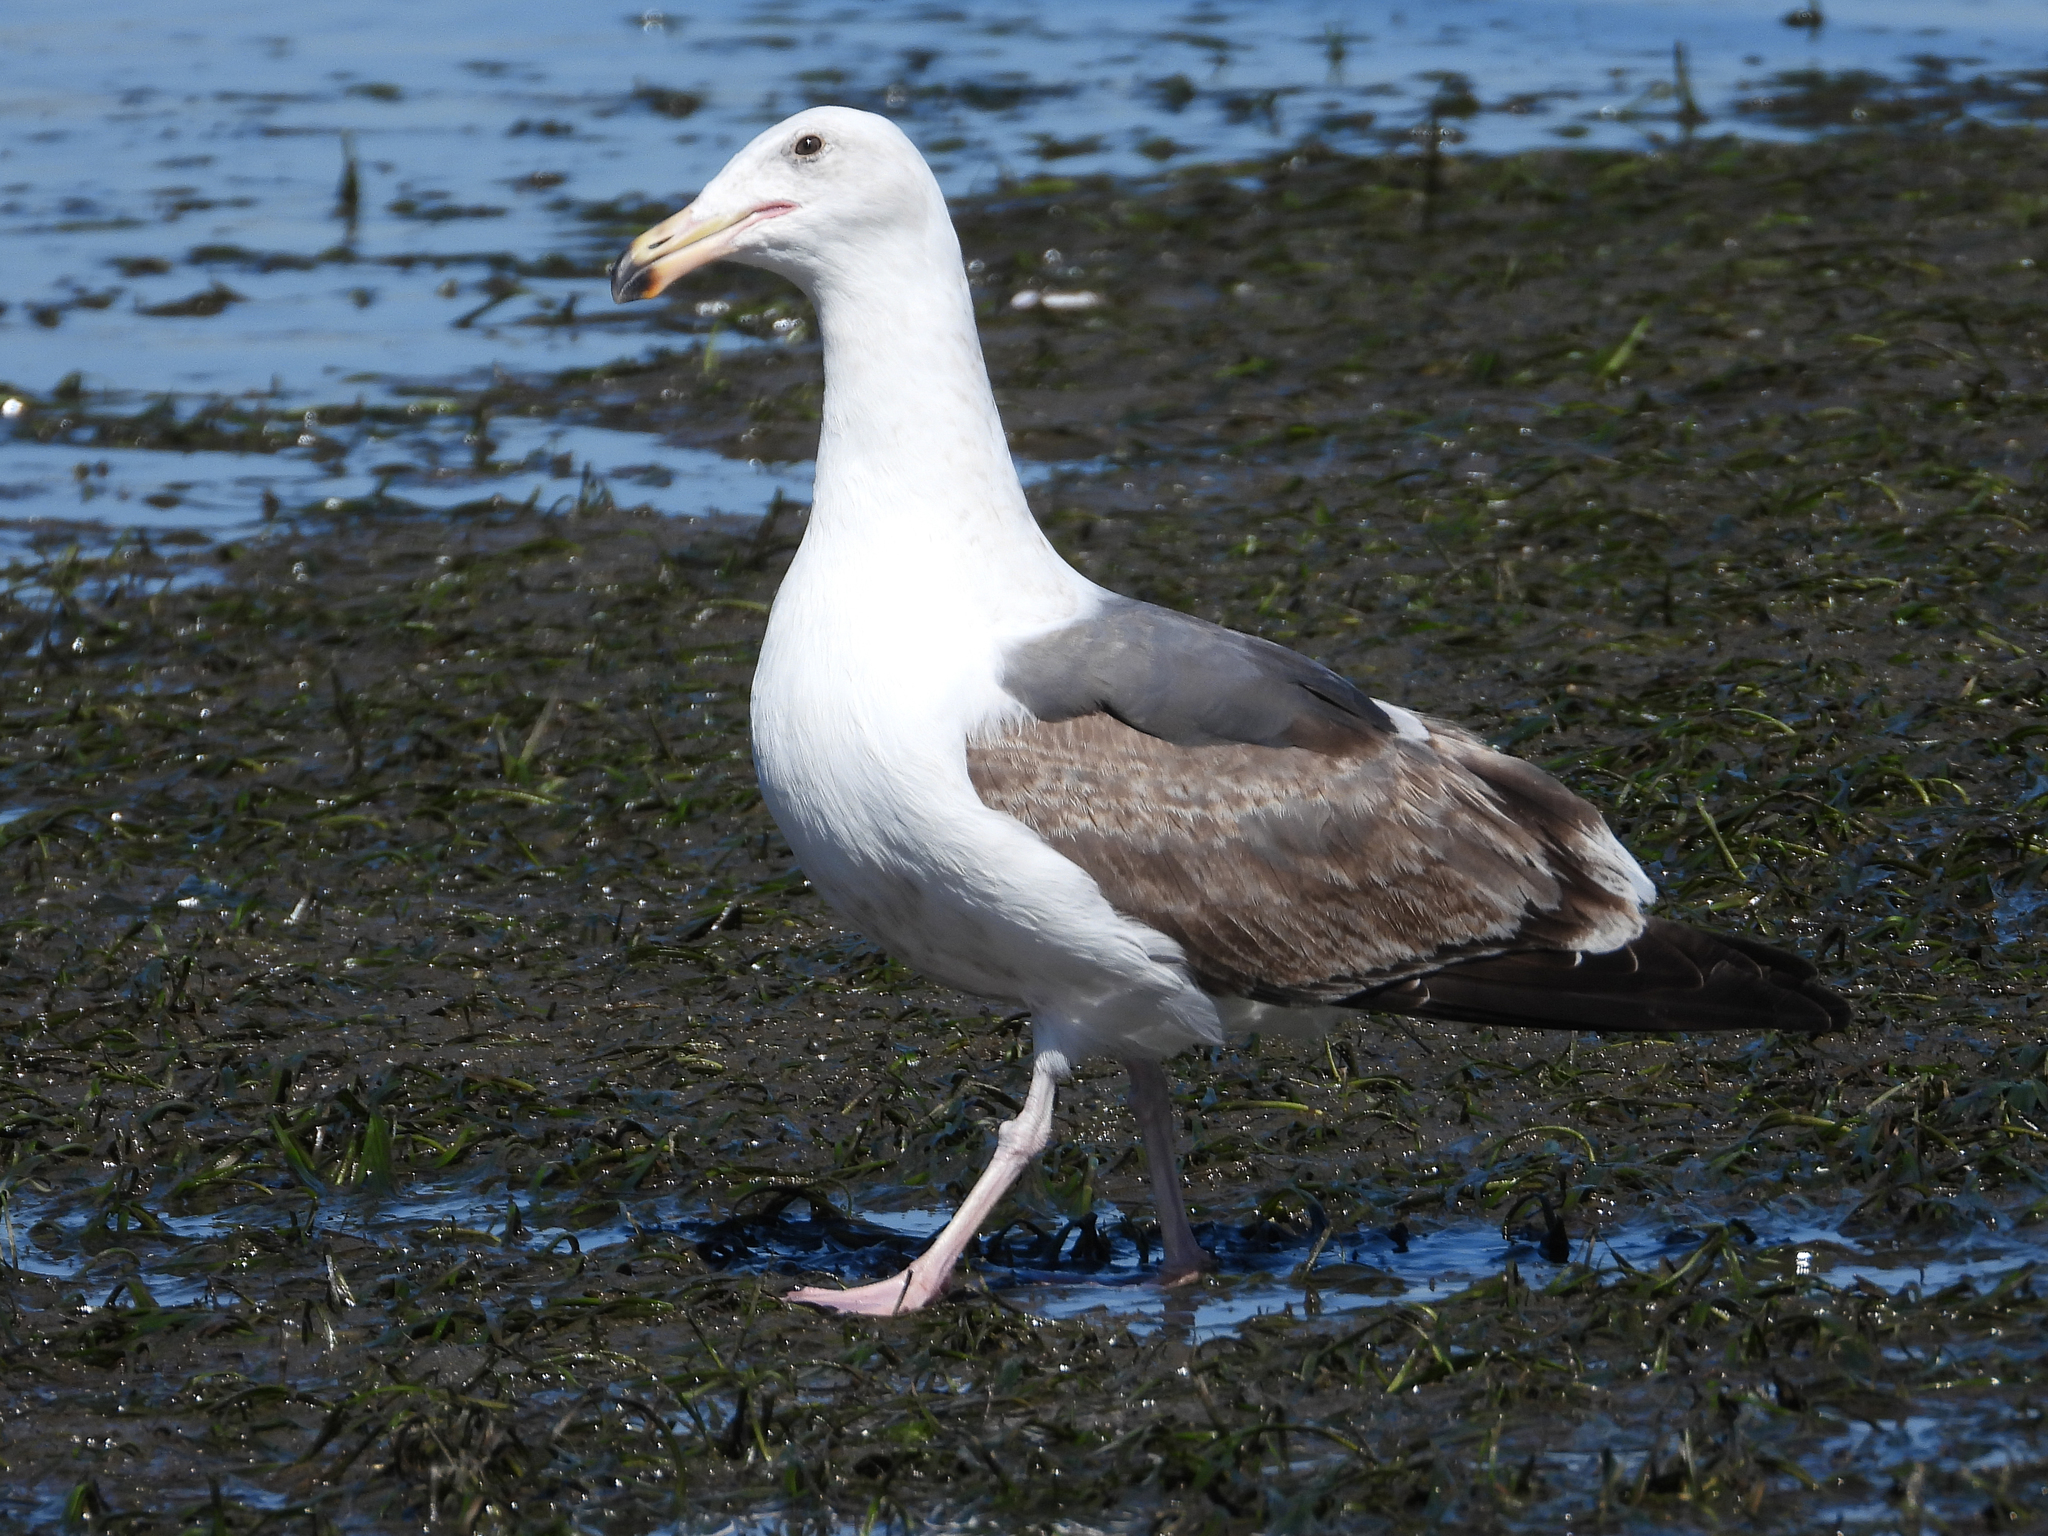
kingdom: Animalia
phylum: Chordata
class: Aves
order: Charadriiformes
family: Laridae
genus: Larus
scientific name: Larus occidentalis
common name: Western gull
